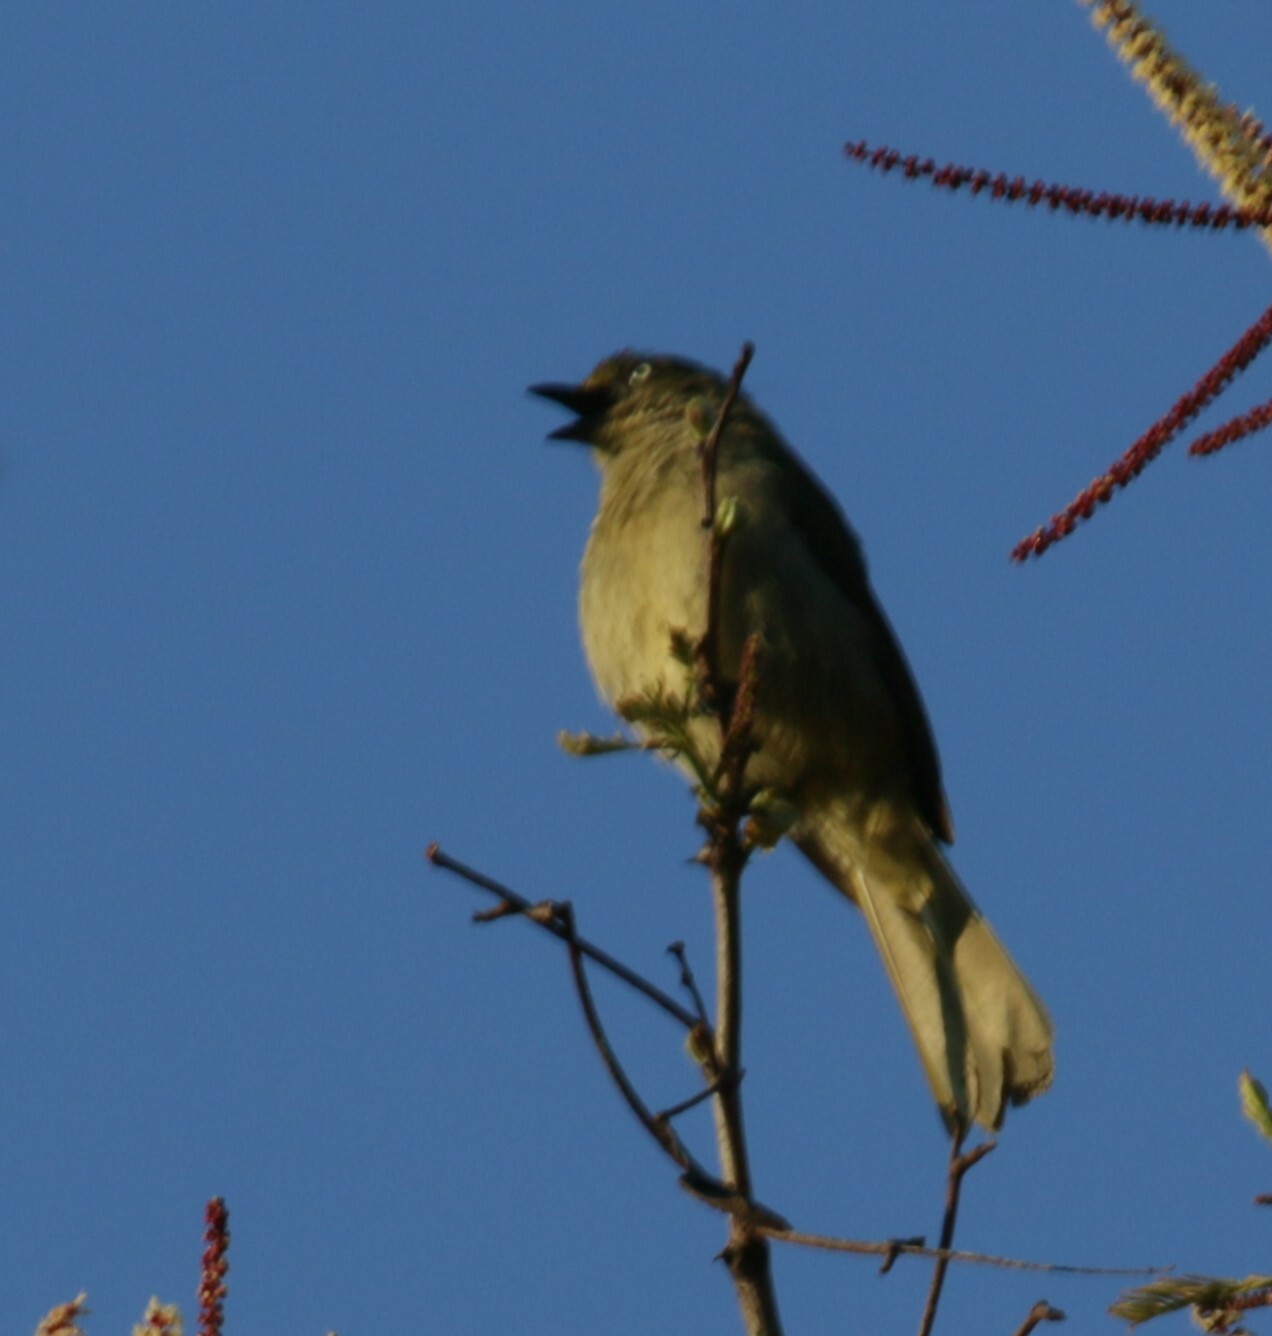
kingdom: Animalia
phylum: Chordata
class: Aves
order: Passeriformes
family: Pycnonotidae
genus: Andropadus
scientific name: Andropadus importunus
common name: Sombre greenbul
